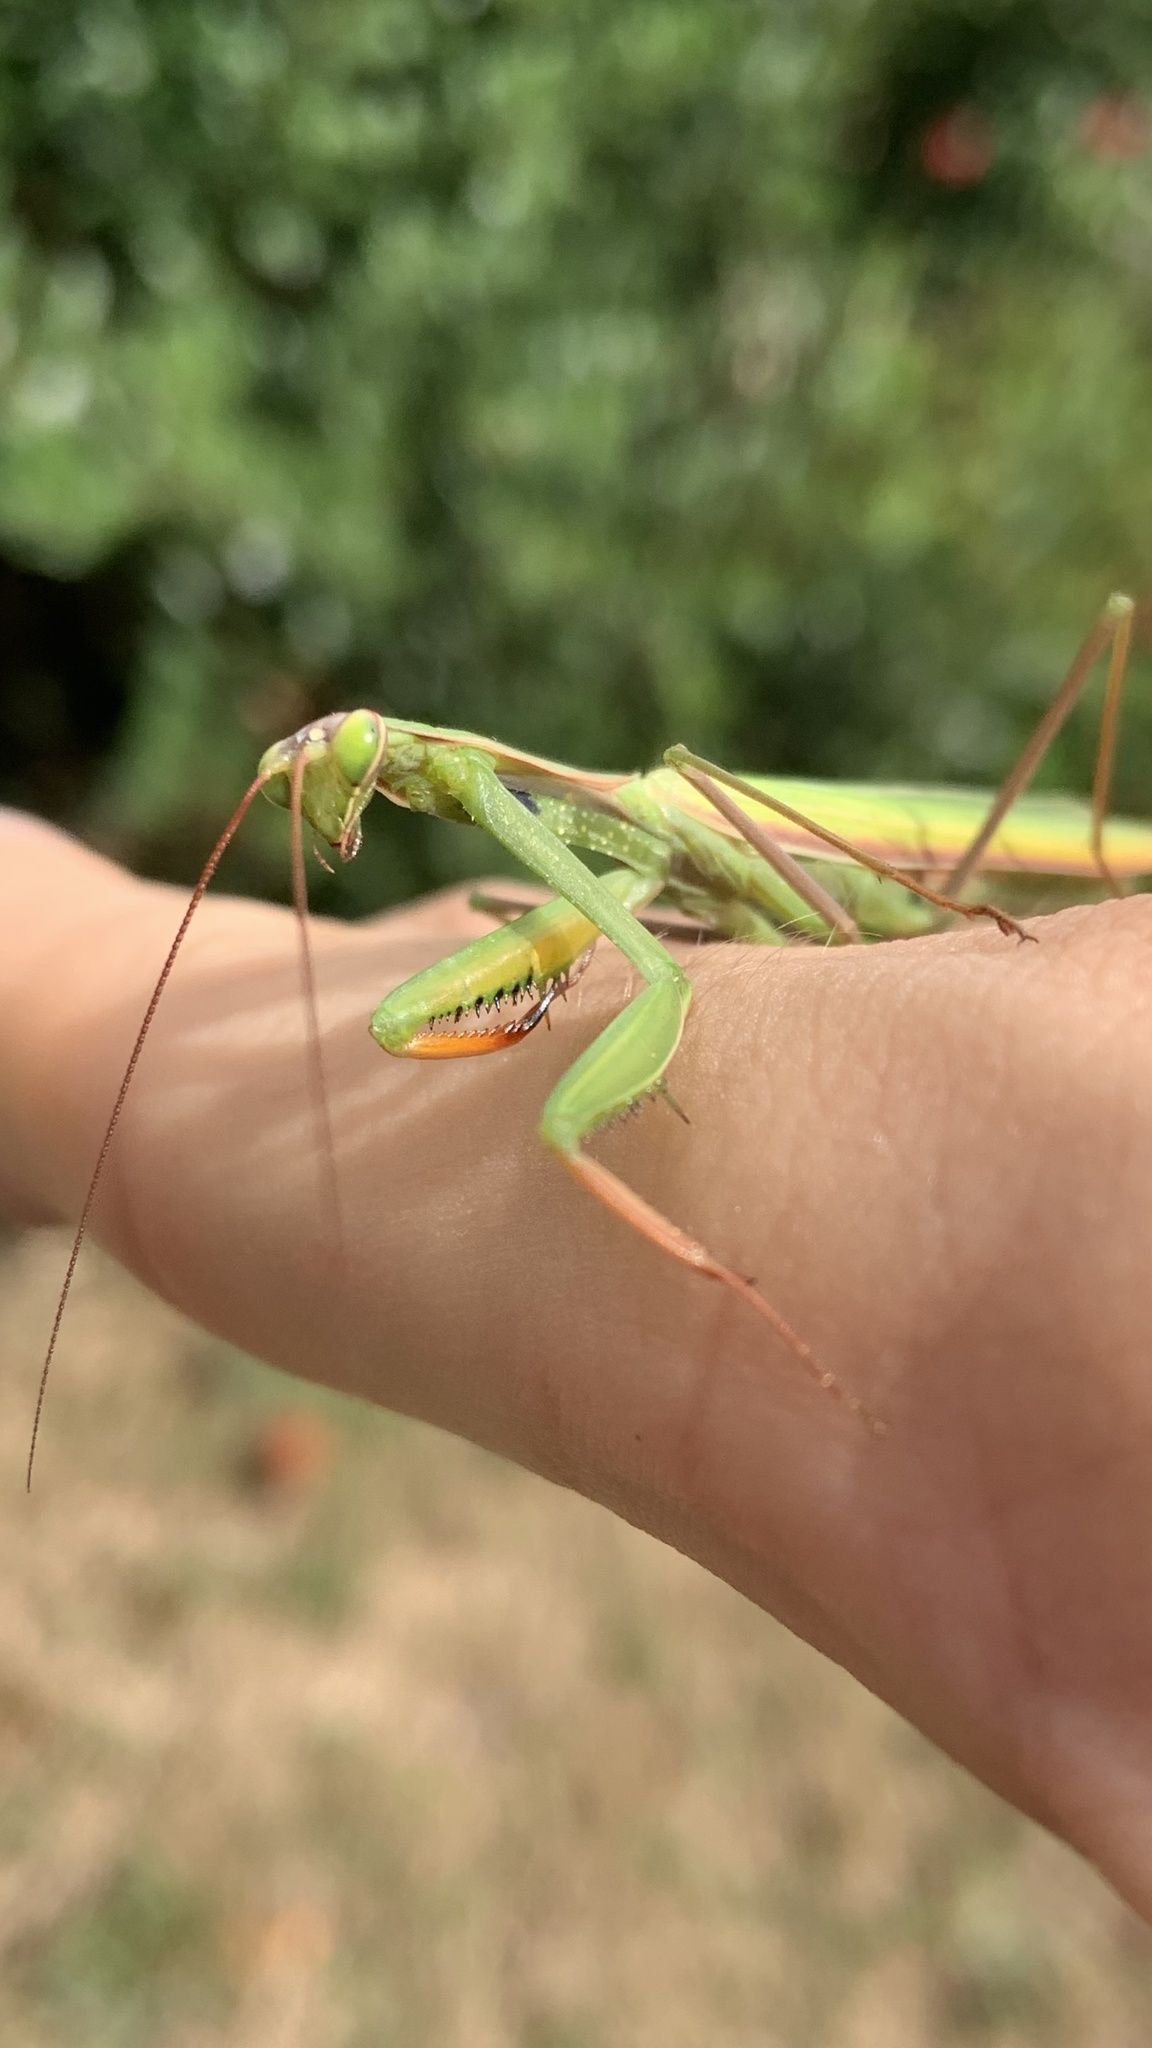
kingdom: Animalia
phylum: Arthropoda
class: Insecta
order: Mantodea
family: Mantidae
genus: Mantis
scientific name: Mantis religiosa
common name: Praying mantis
